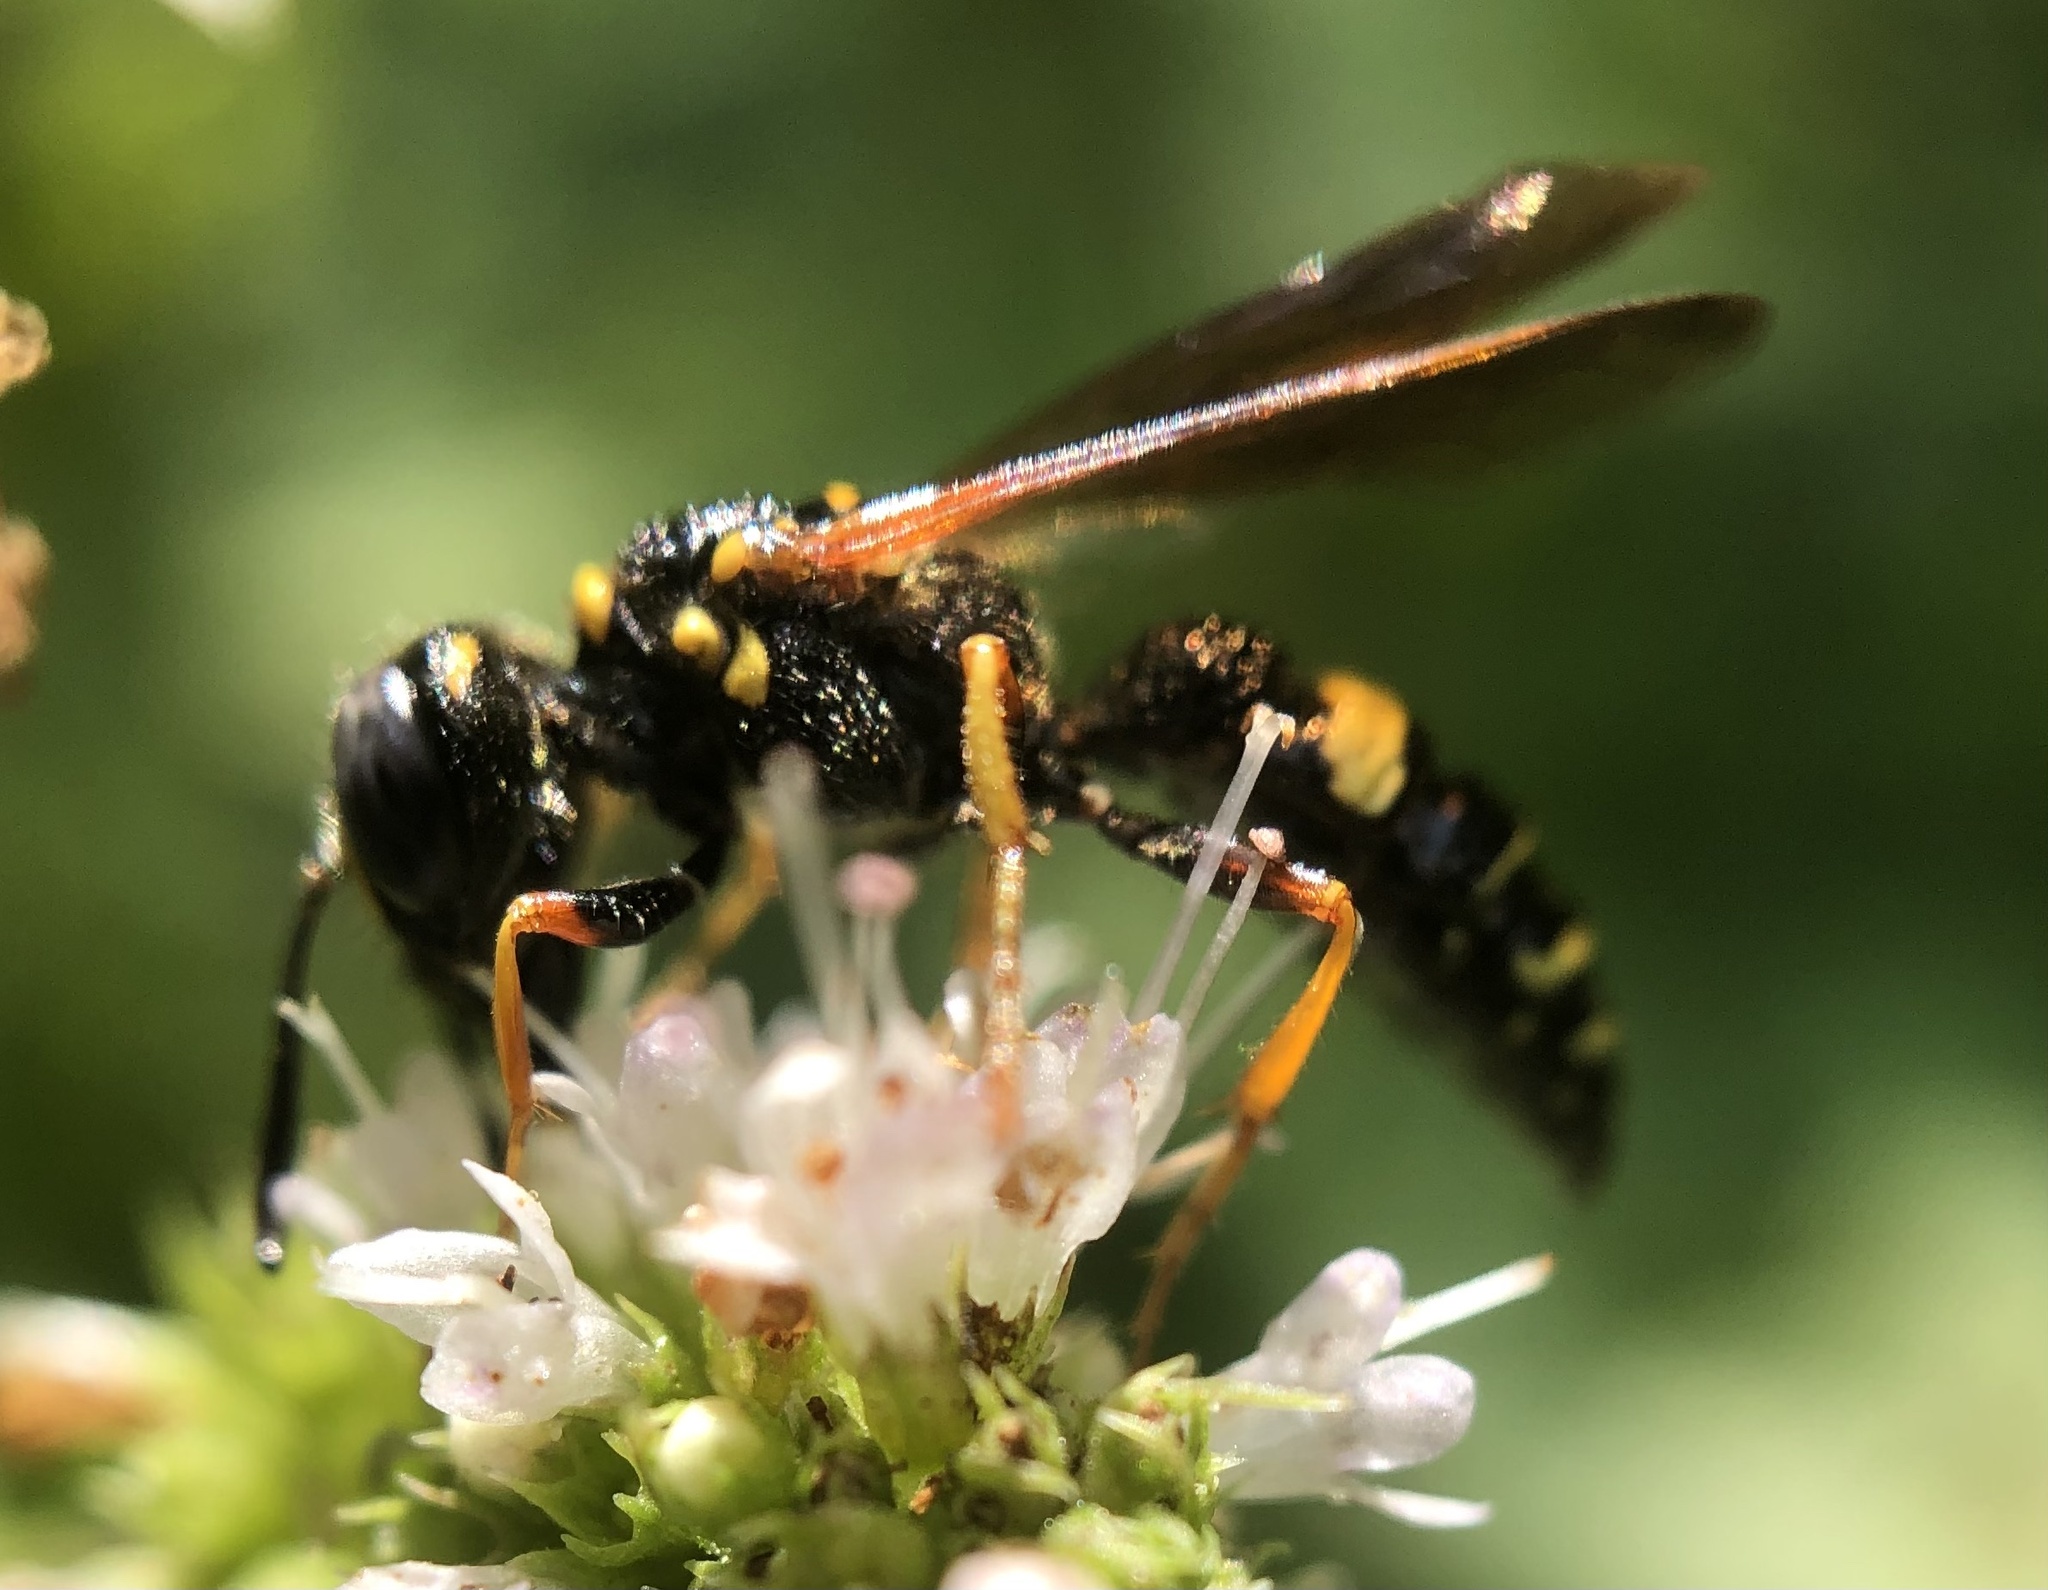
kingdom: Animalia
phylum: Arthropoda
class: Insecta
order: Hymenoptera
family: Crabronidae
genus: Philanthus
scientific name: Philanthus gibbosus
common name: Humped beewolf
